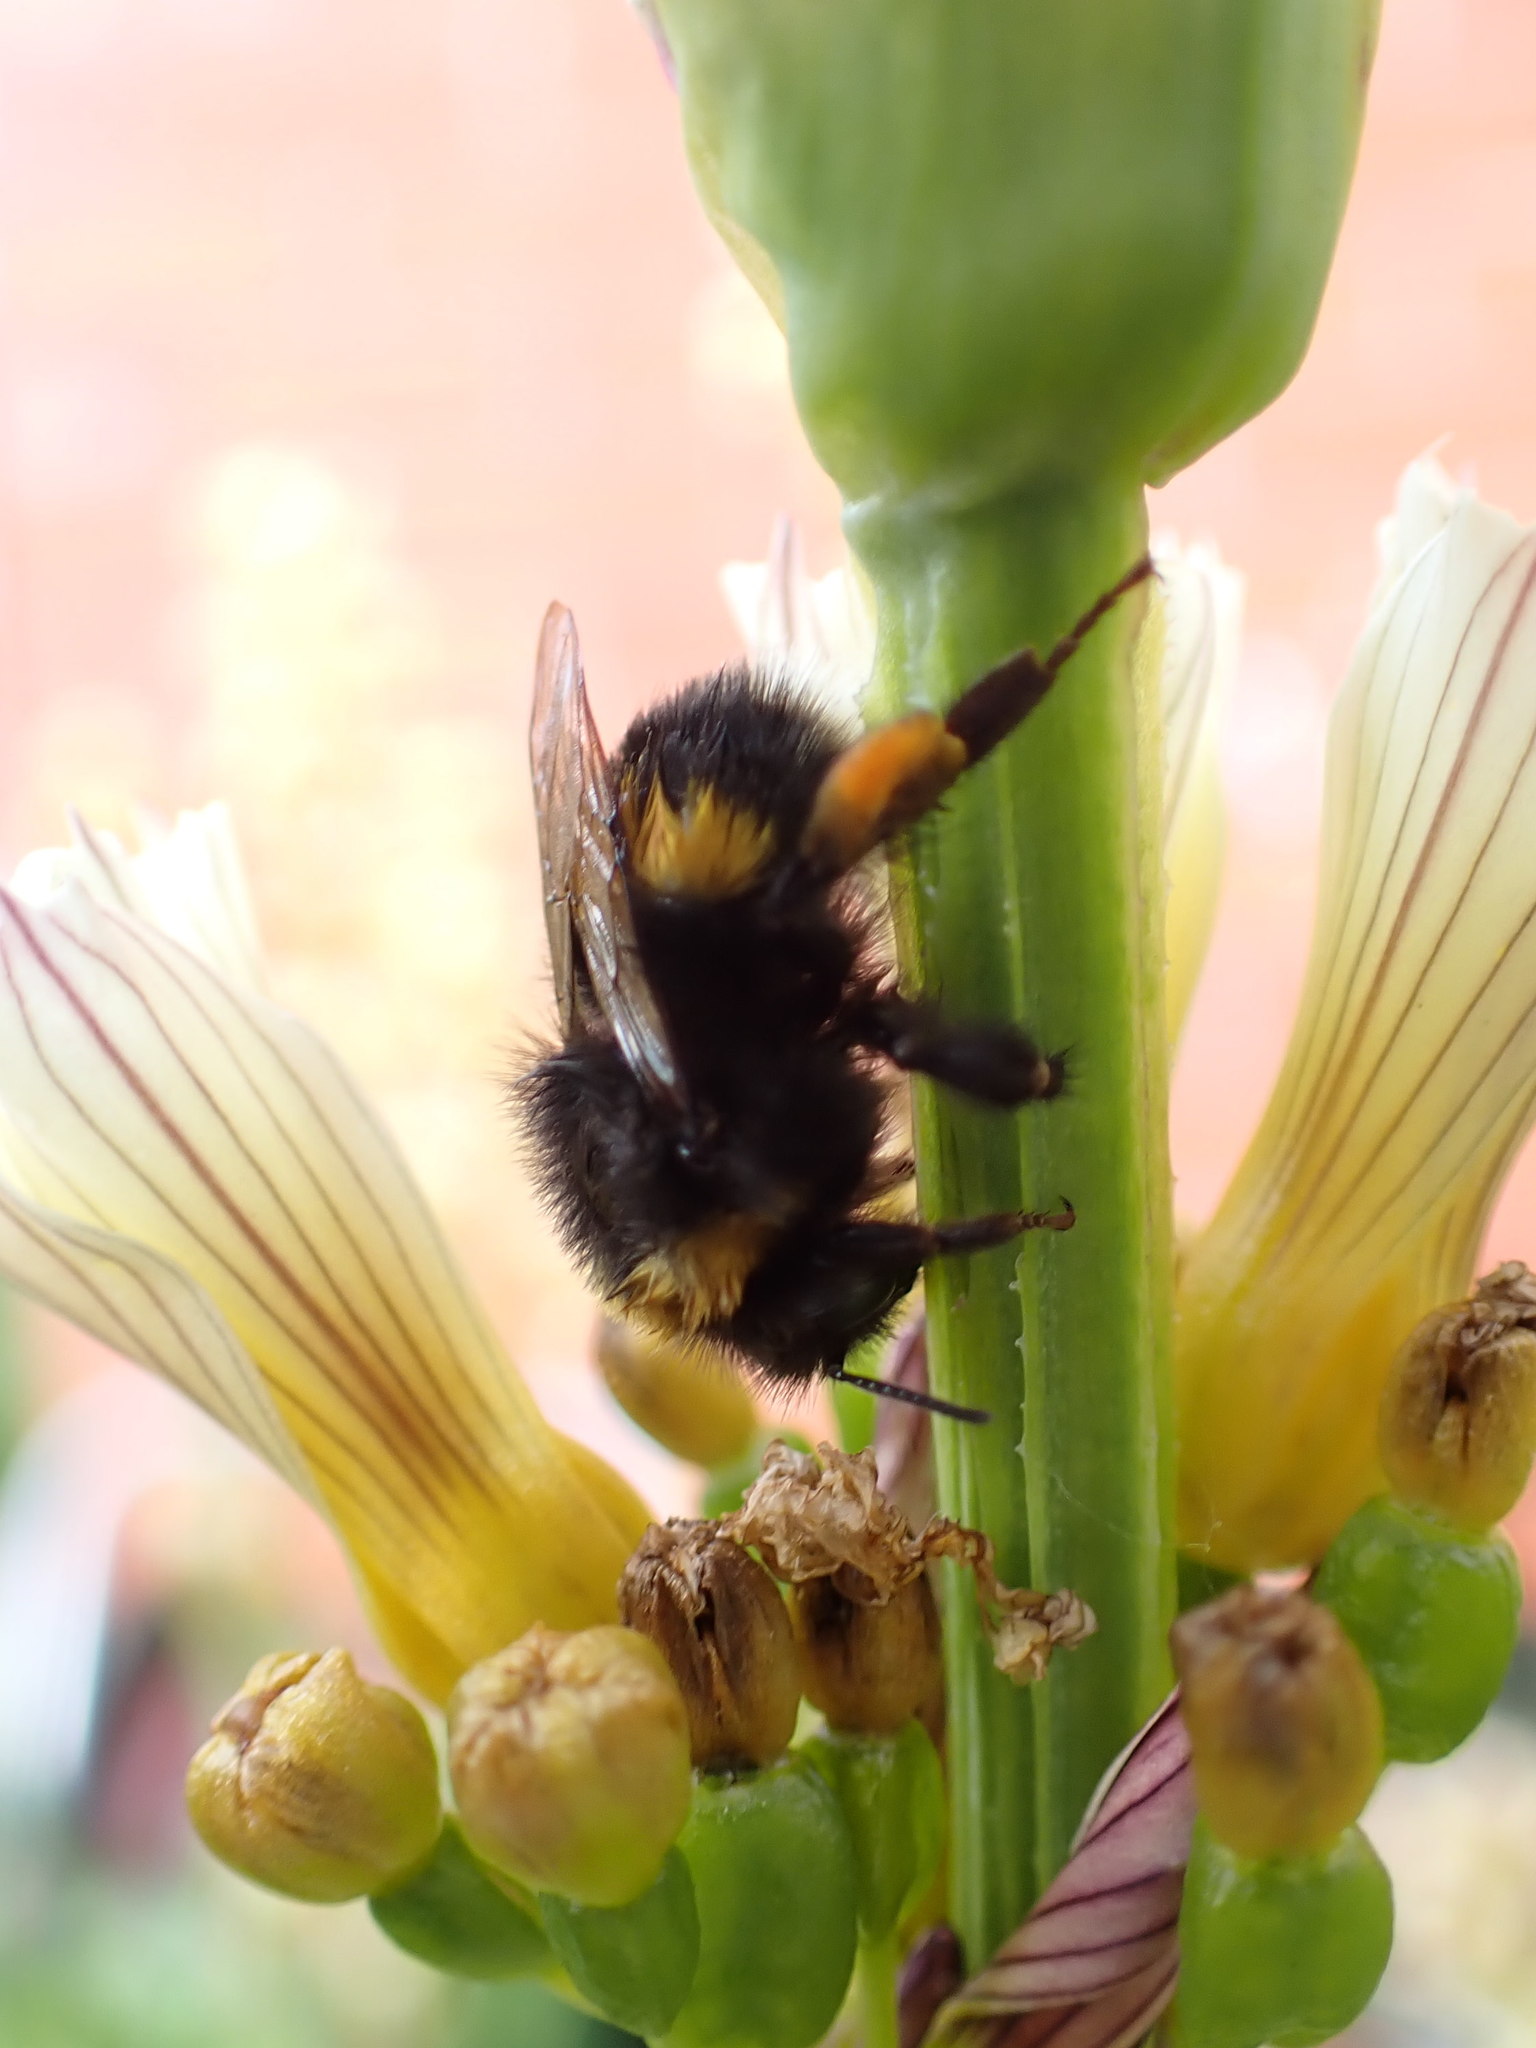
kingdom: Animalia
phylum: Arthropoda
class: Insecta
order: Hymenoptera
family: Apidae
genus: Bombus
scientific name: Bombus terrestris
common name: Buff-tailed bumblebee
